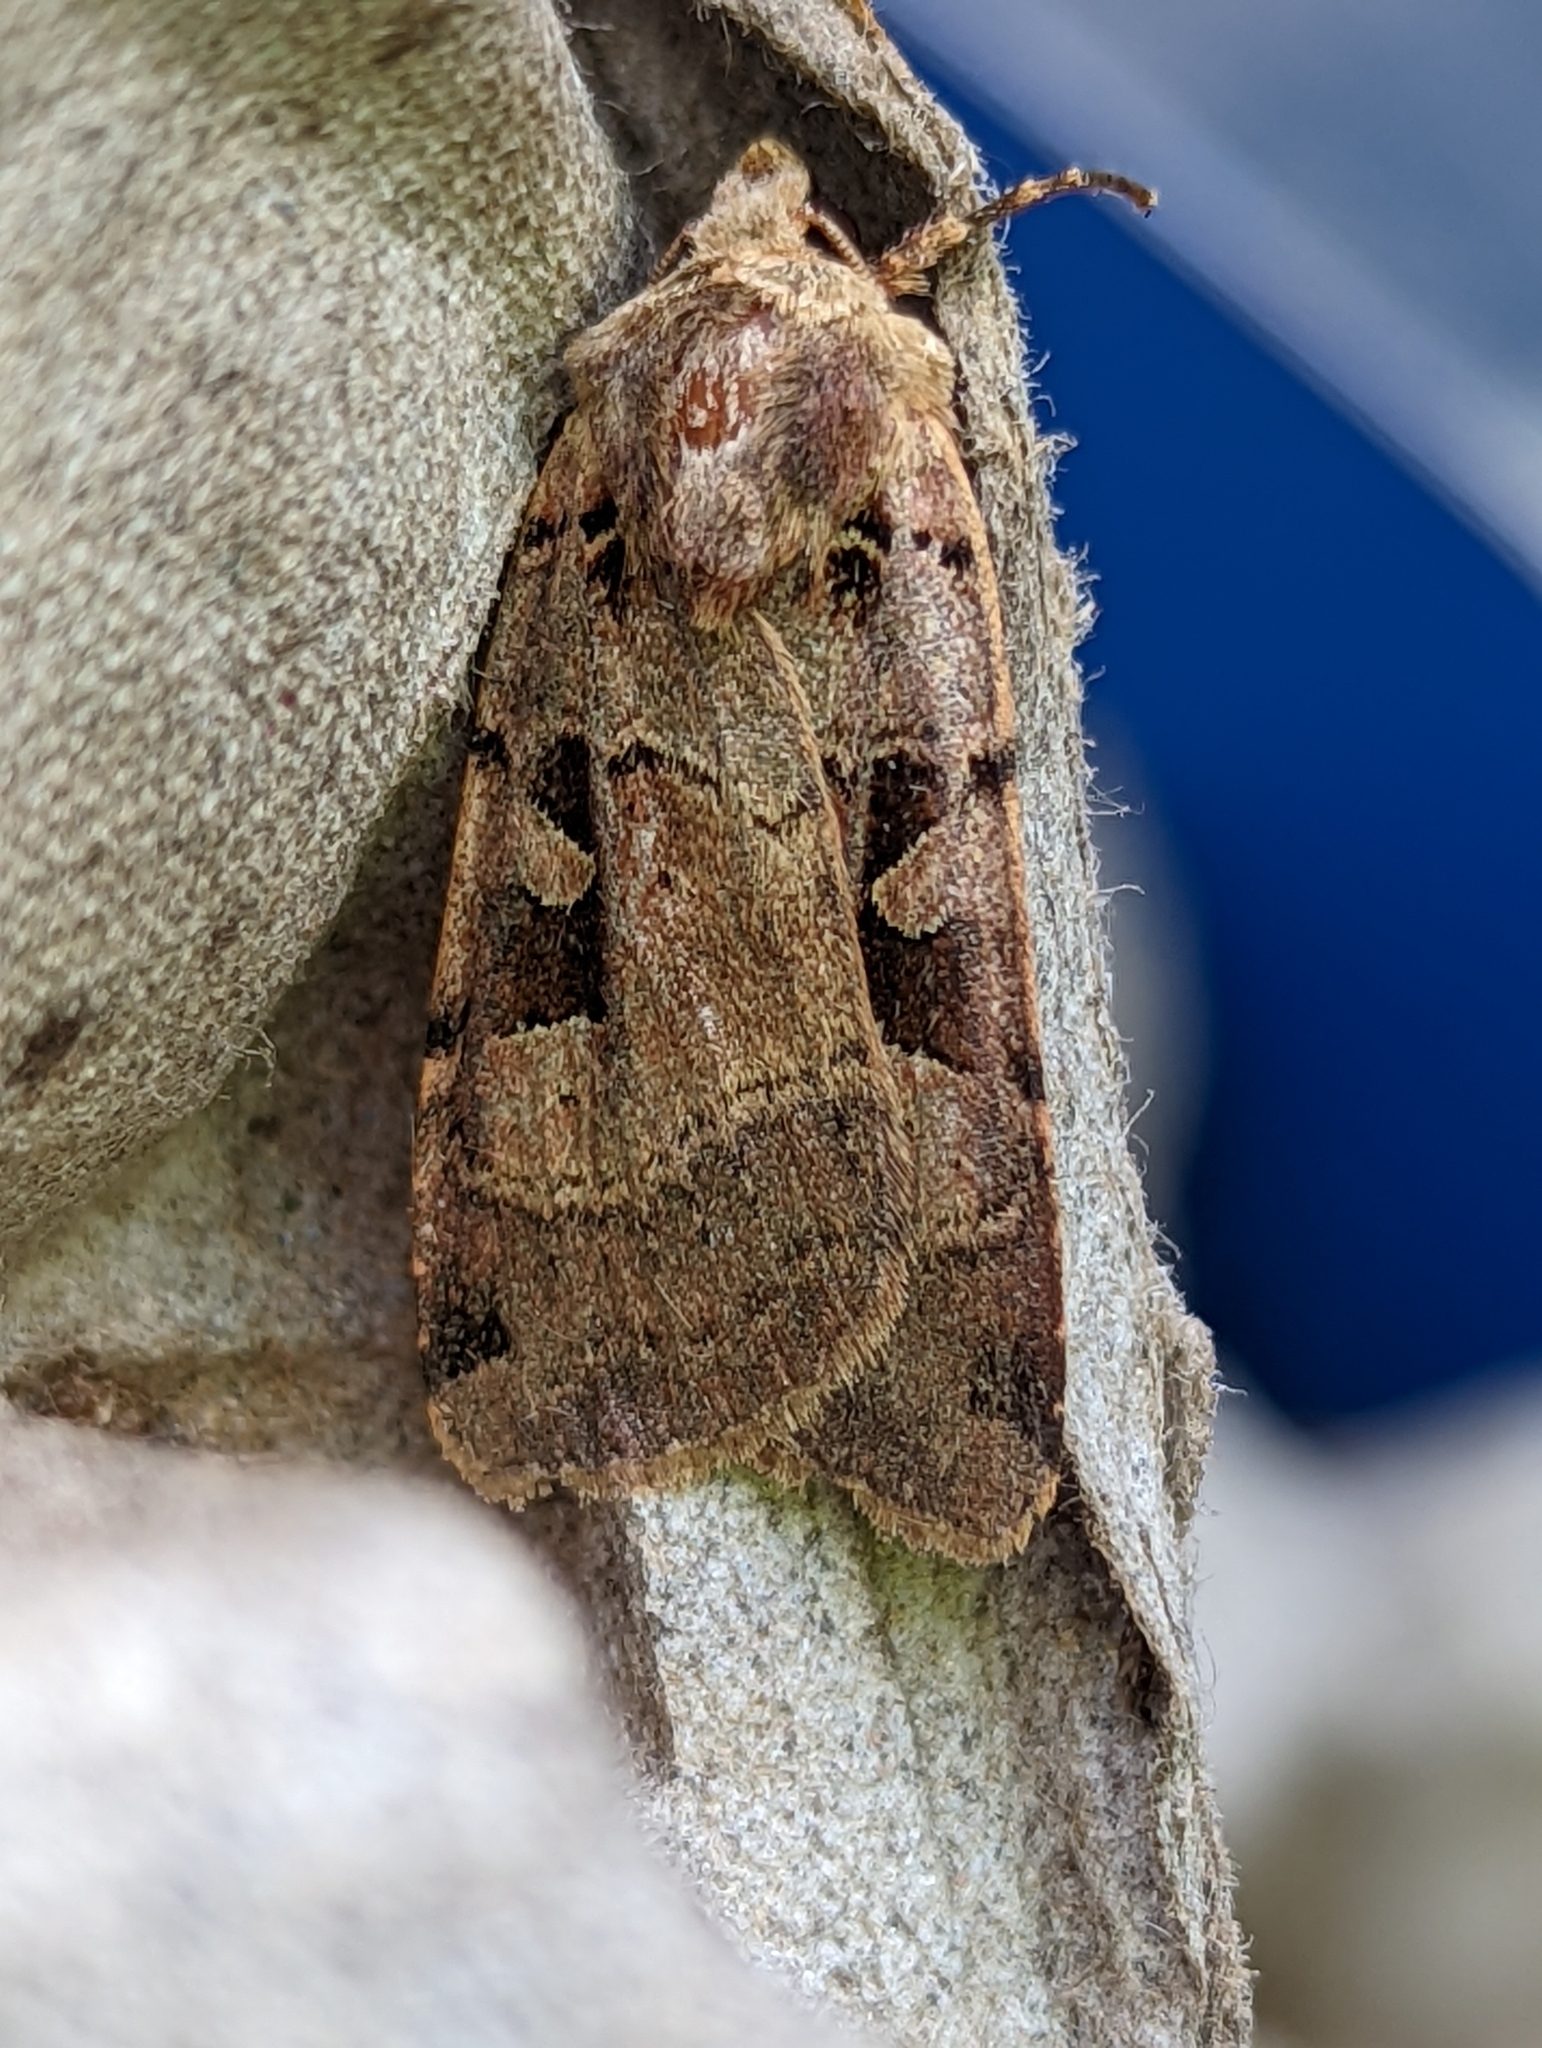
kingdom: Animalia
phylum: Arthropoda
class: Insecta
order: Lepidoptera
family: Noctuidae
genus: Xestia
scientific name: Xestia triangulum
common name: Double square-spot
